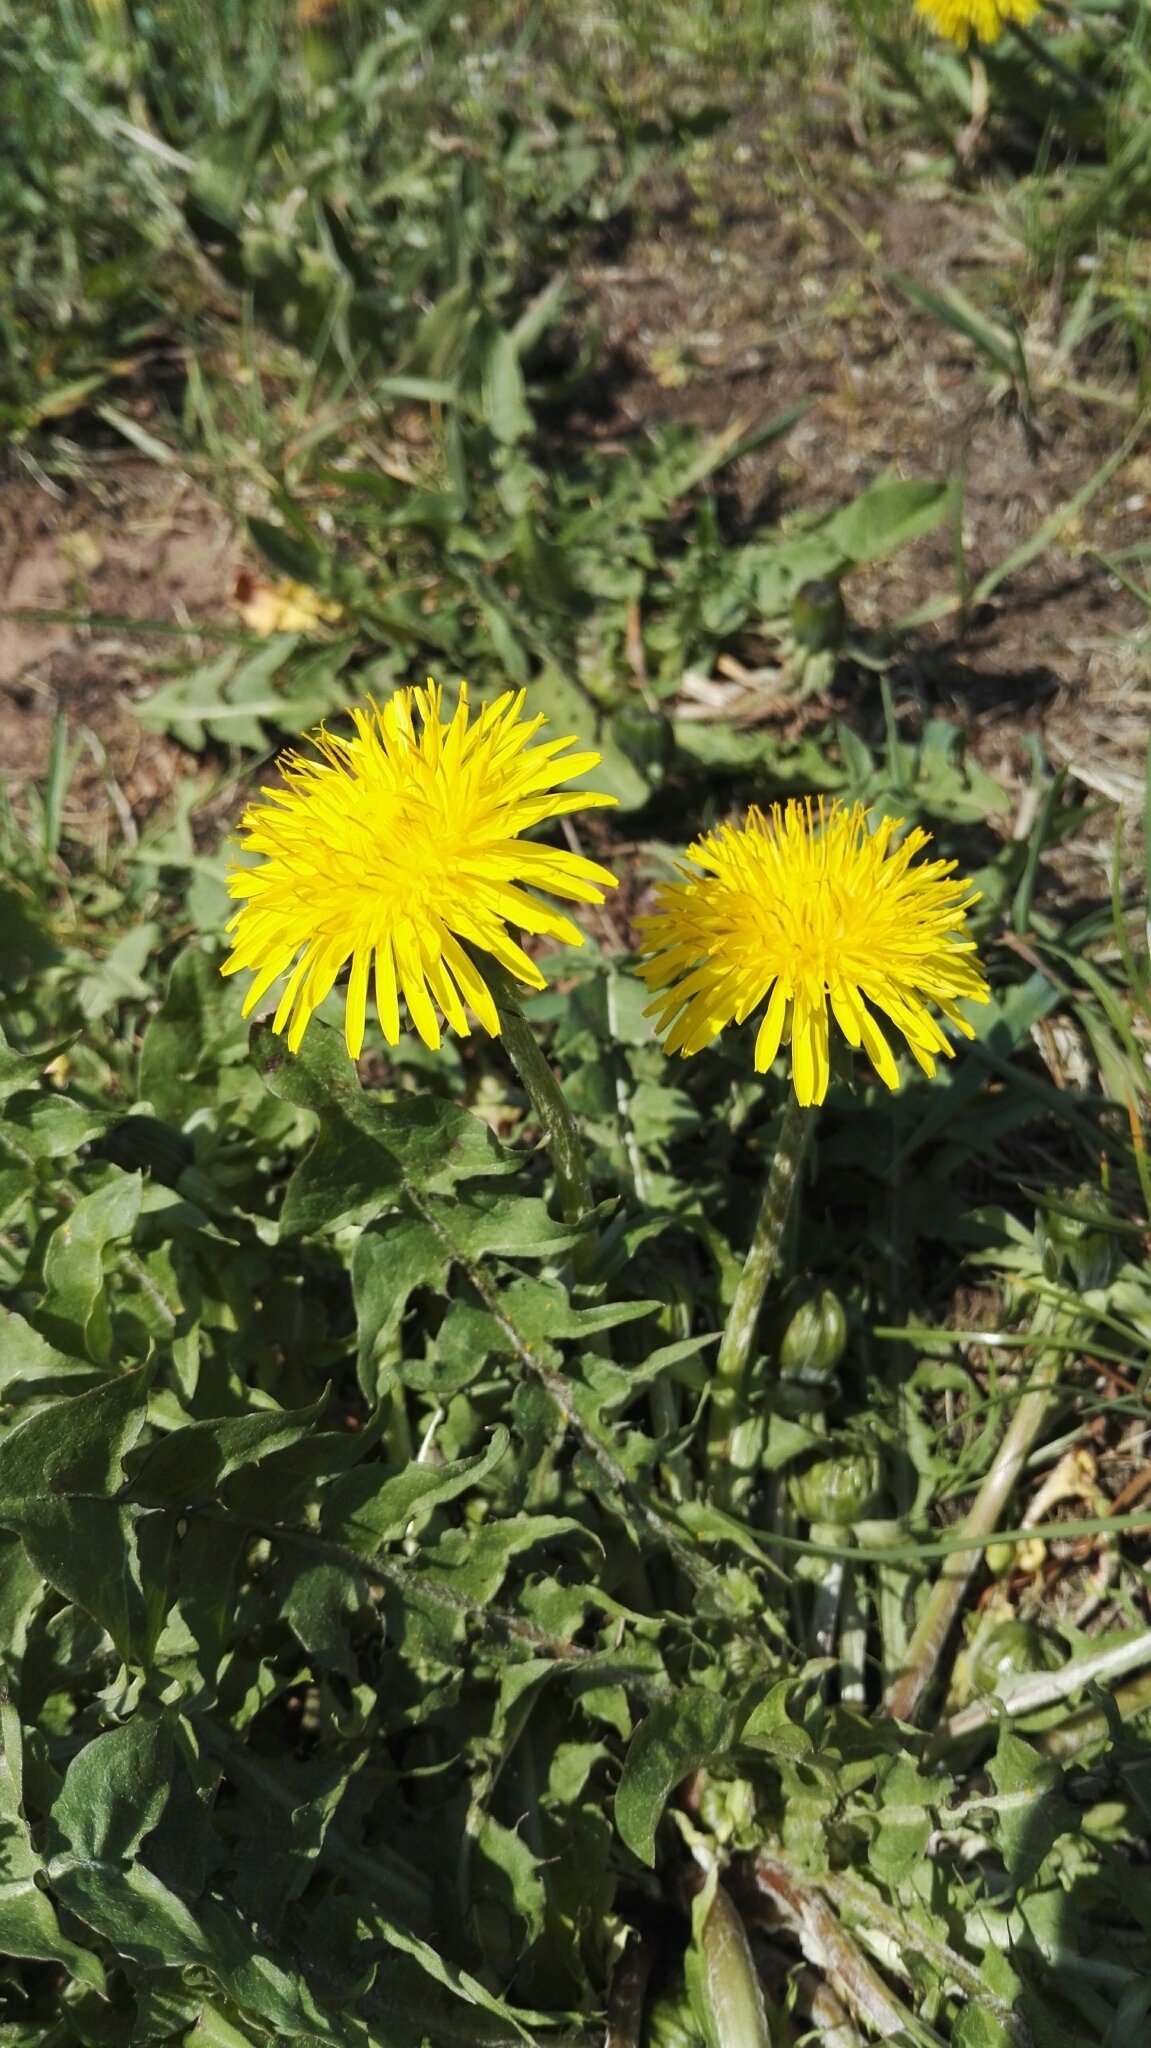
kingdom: Plantae
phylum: Tracheophyta
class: Magnoliopsida
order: Asterales
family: Asteraceae
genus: Taraxacum
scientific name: Taraxacum officinale
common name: Common dandelion
